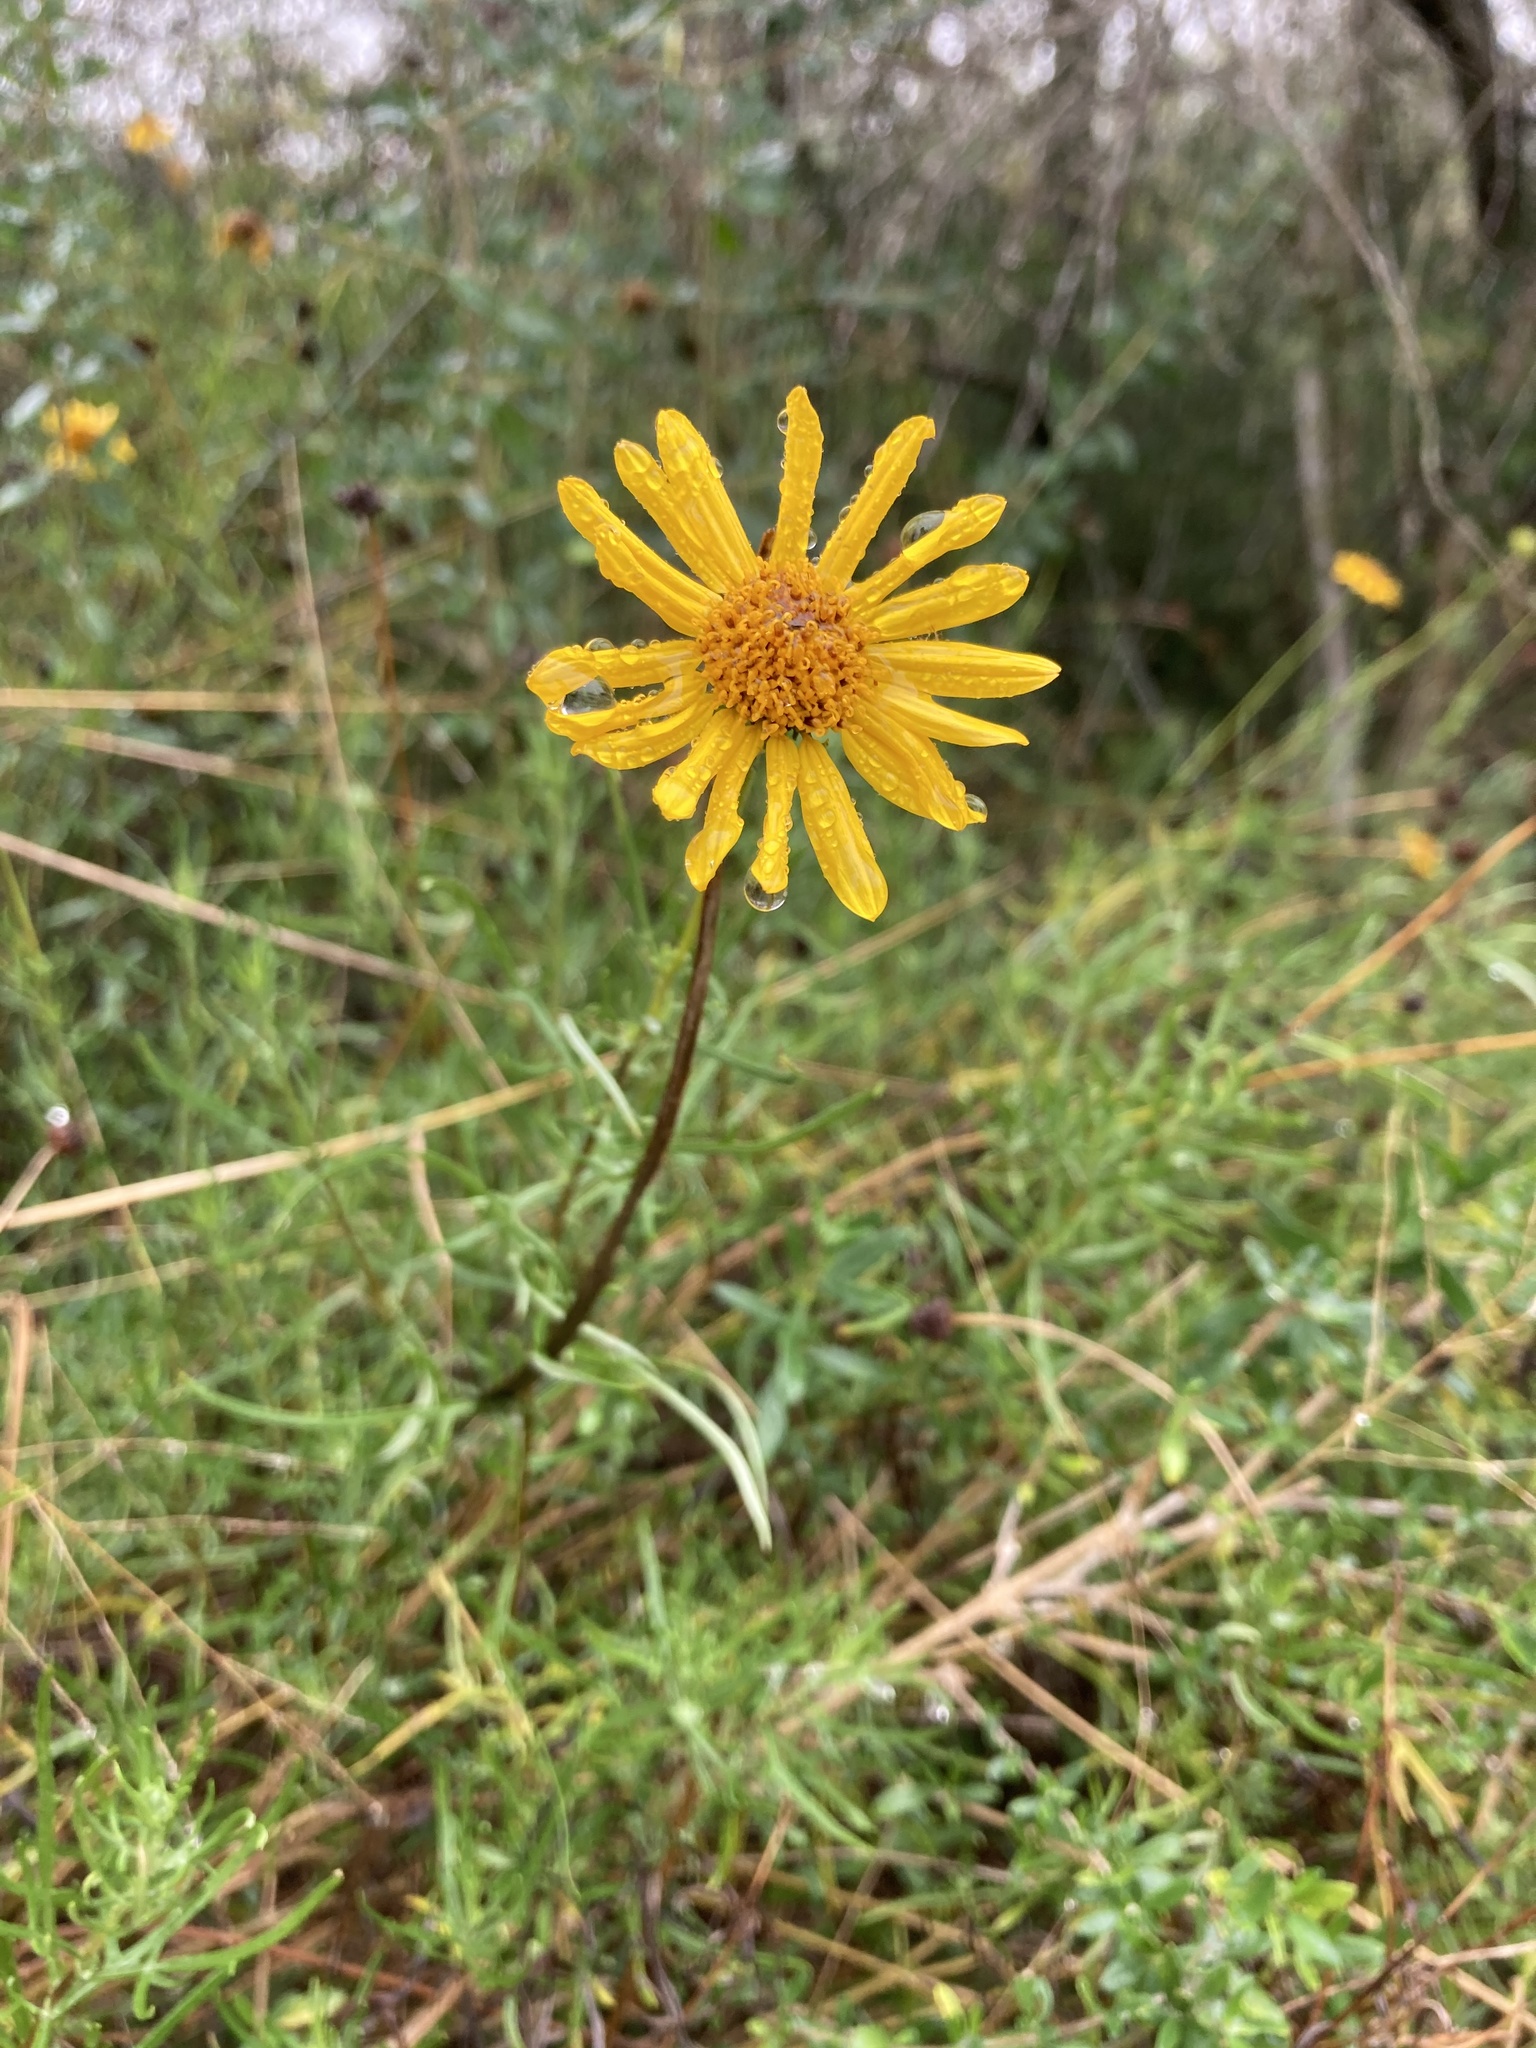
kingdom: Plantae
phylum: Tracheophyta
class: Magnoliopsida
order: Asterales
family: Asteraceae
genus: Sidneya
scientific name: Sidneya tenuifolia
